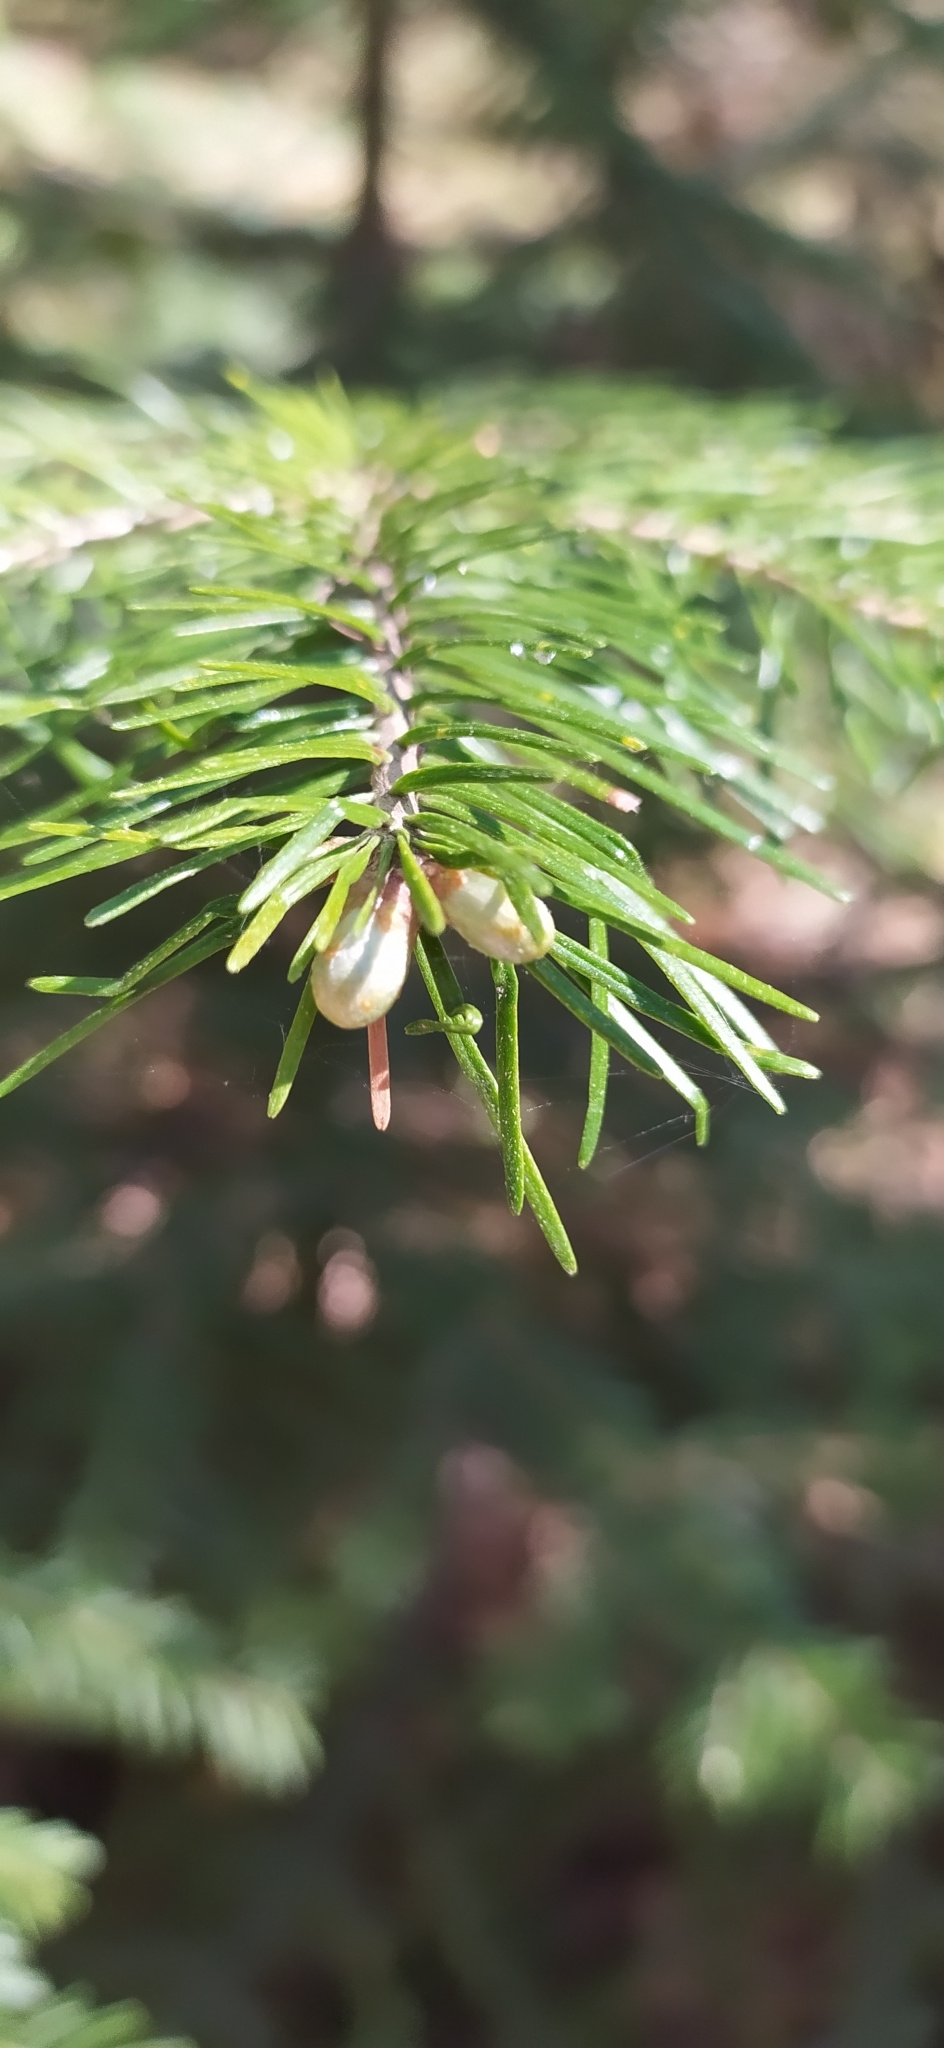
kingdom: Plantae
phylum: Tracheophyta
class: Pinopsida
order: Pinales
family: Pinaceae
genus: Abies
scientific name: Abies sibirica
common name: Siberian fir
